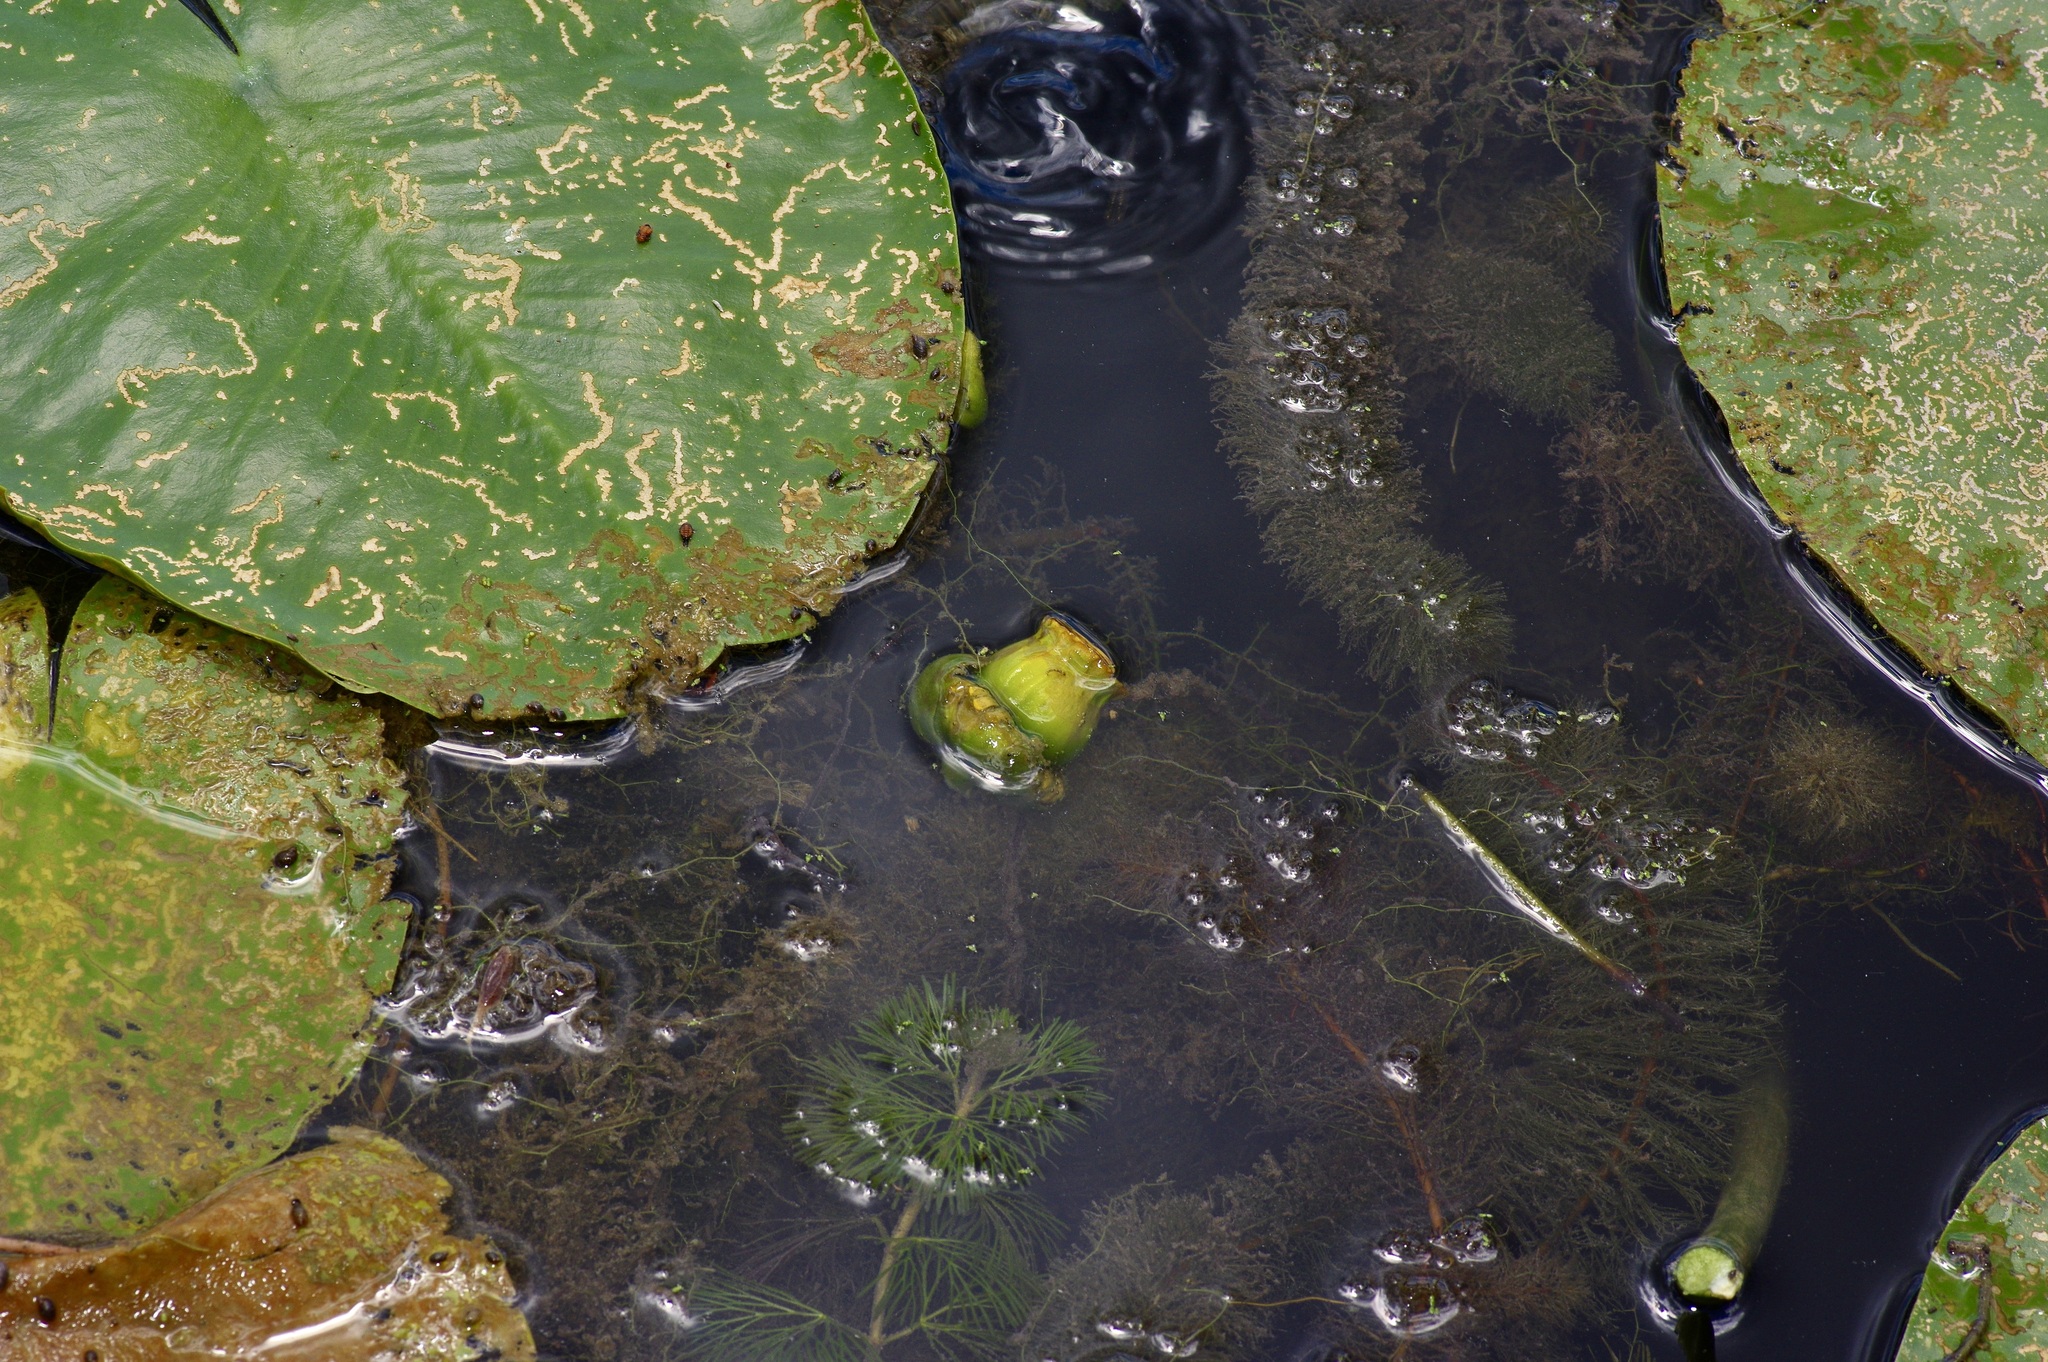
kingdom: Plantae
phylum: Tracheophyta
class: Magnoliopsida
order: Nymphaeales
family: Nymphaeaceae
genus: Nuphar
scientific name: Nuphar advena
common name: Spatter-dock
